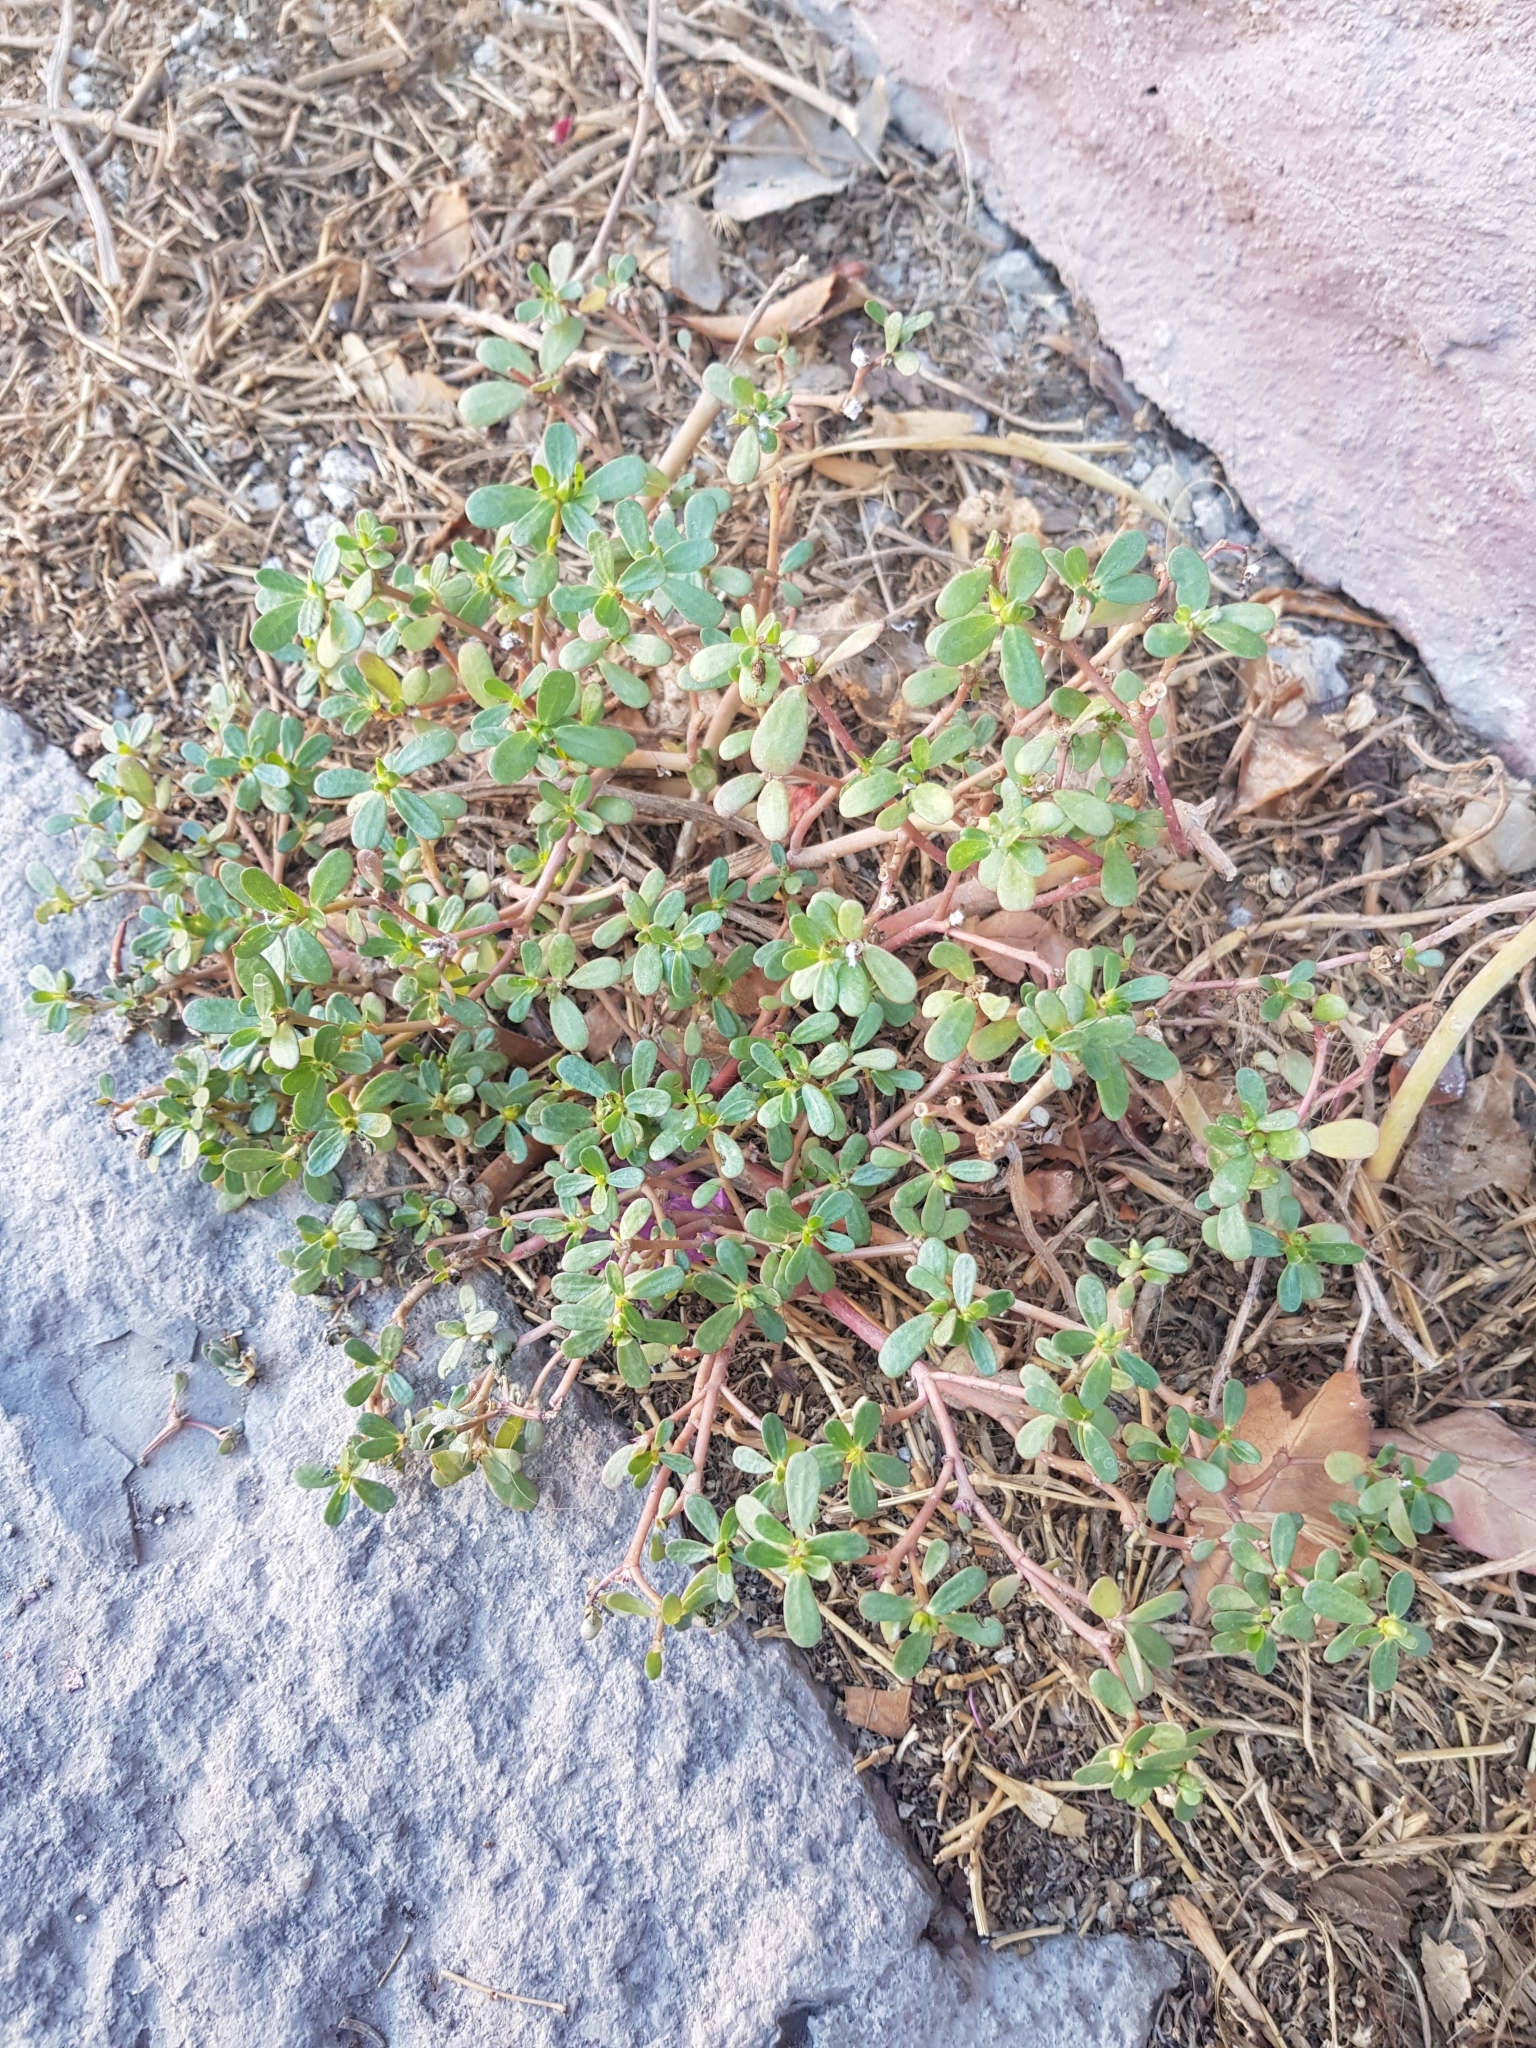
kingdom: Plantae
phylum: Tracheophyta
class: Magnoliopsida
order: Caryophyllales
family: Portulacaceae
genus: Portulaca
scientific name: Portulaca oleracea
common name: Common purslane
